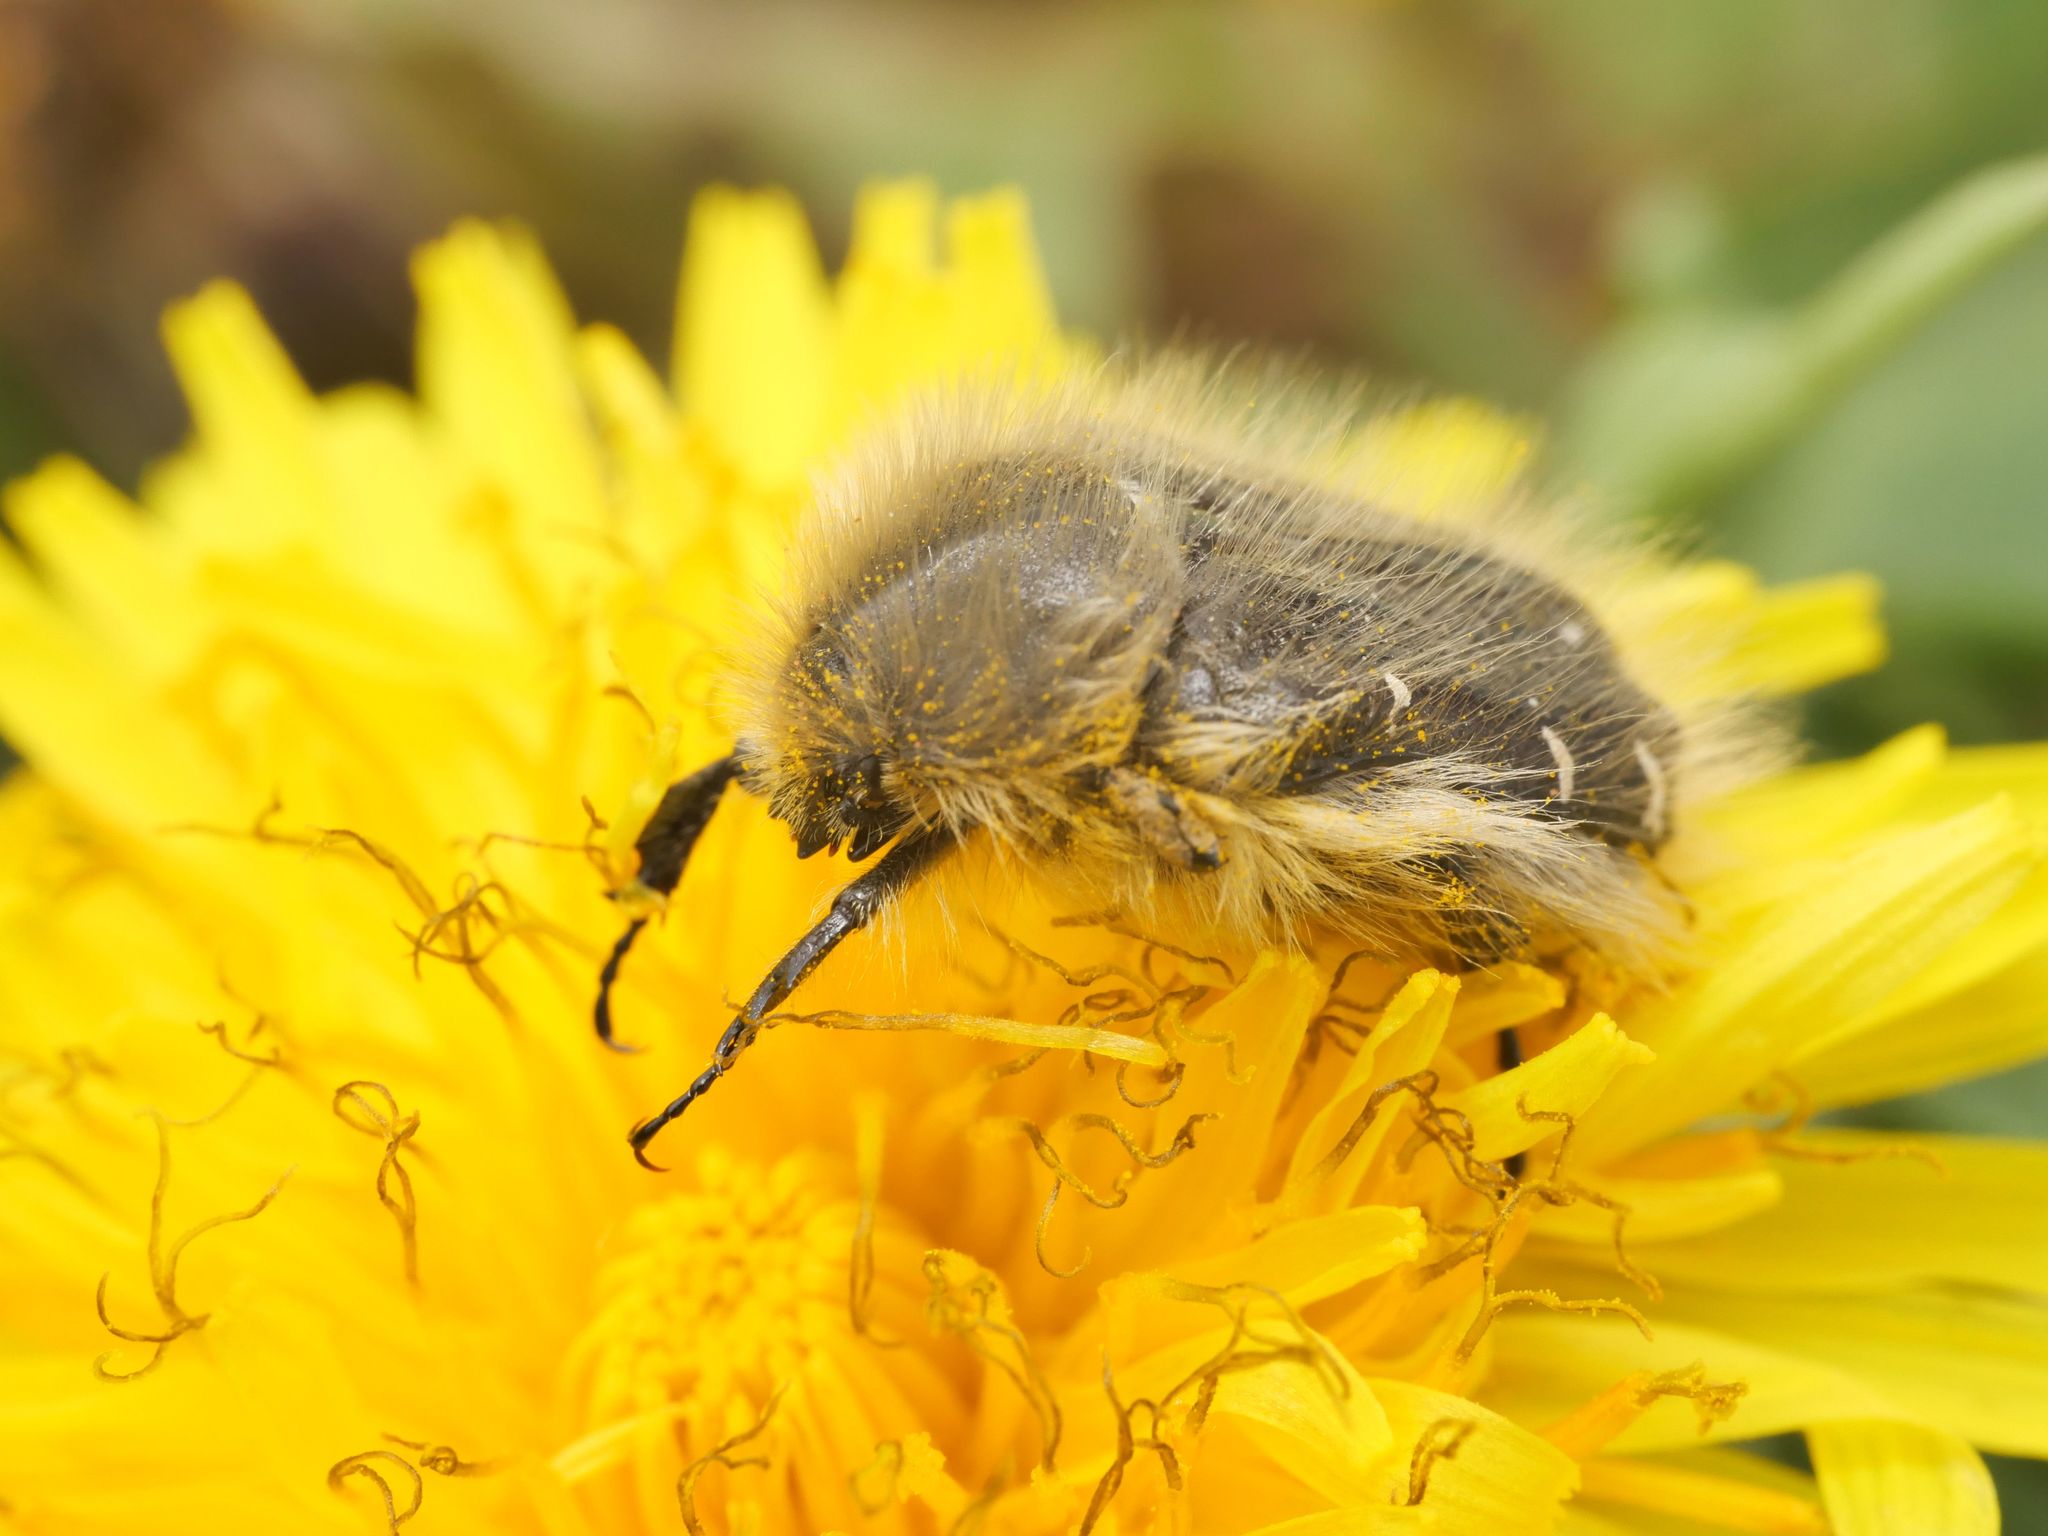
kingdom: Animalia
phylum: Arthropoda
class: Insecta
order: Coleoptera
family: Scarabaeidae
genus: Tropinota
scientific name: Tropinota hirta
